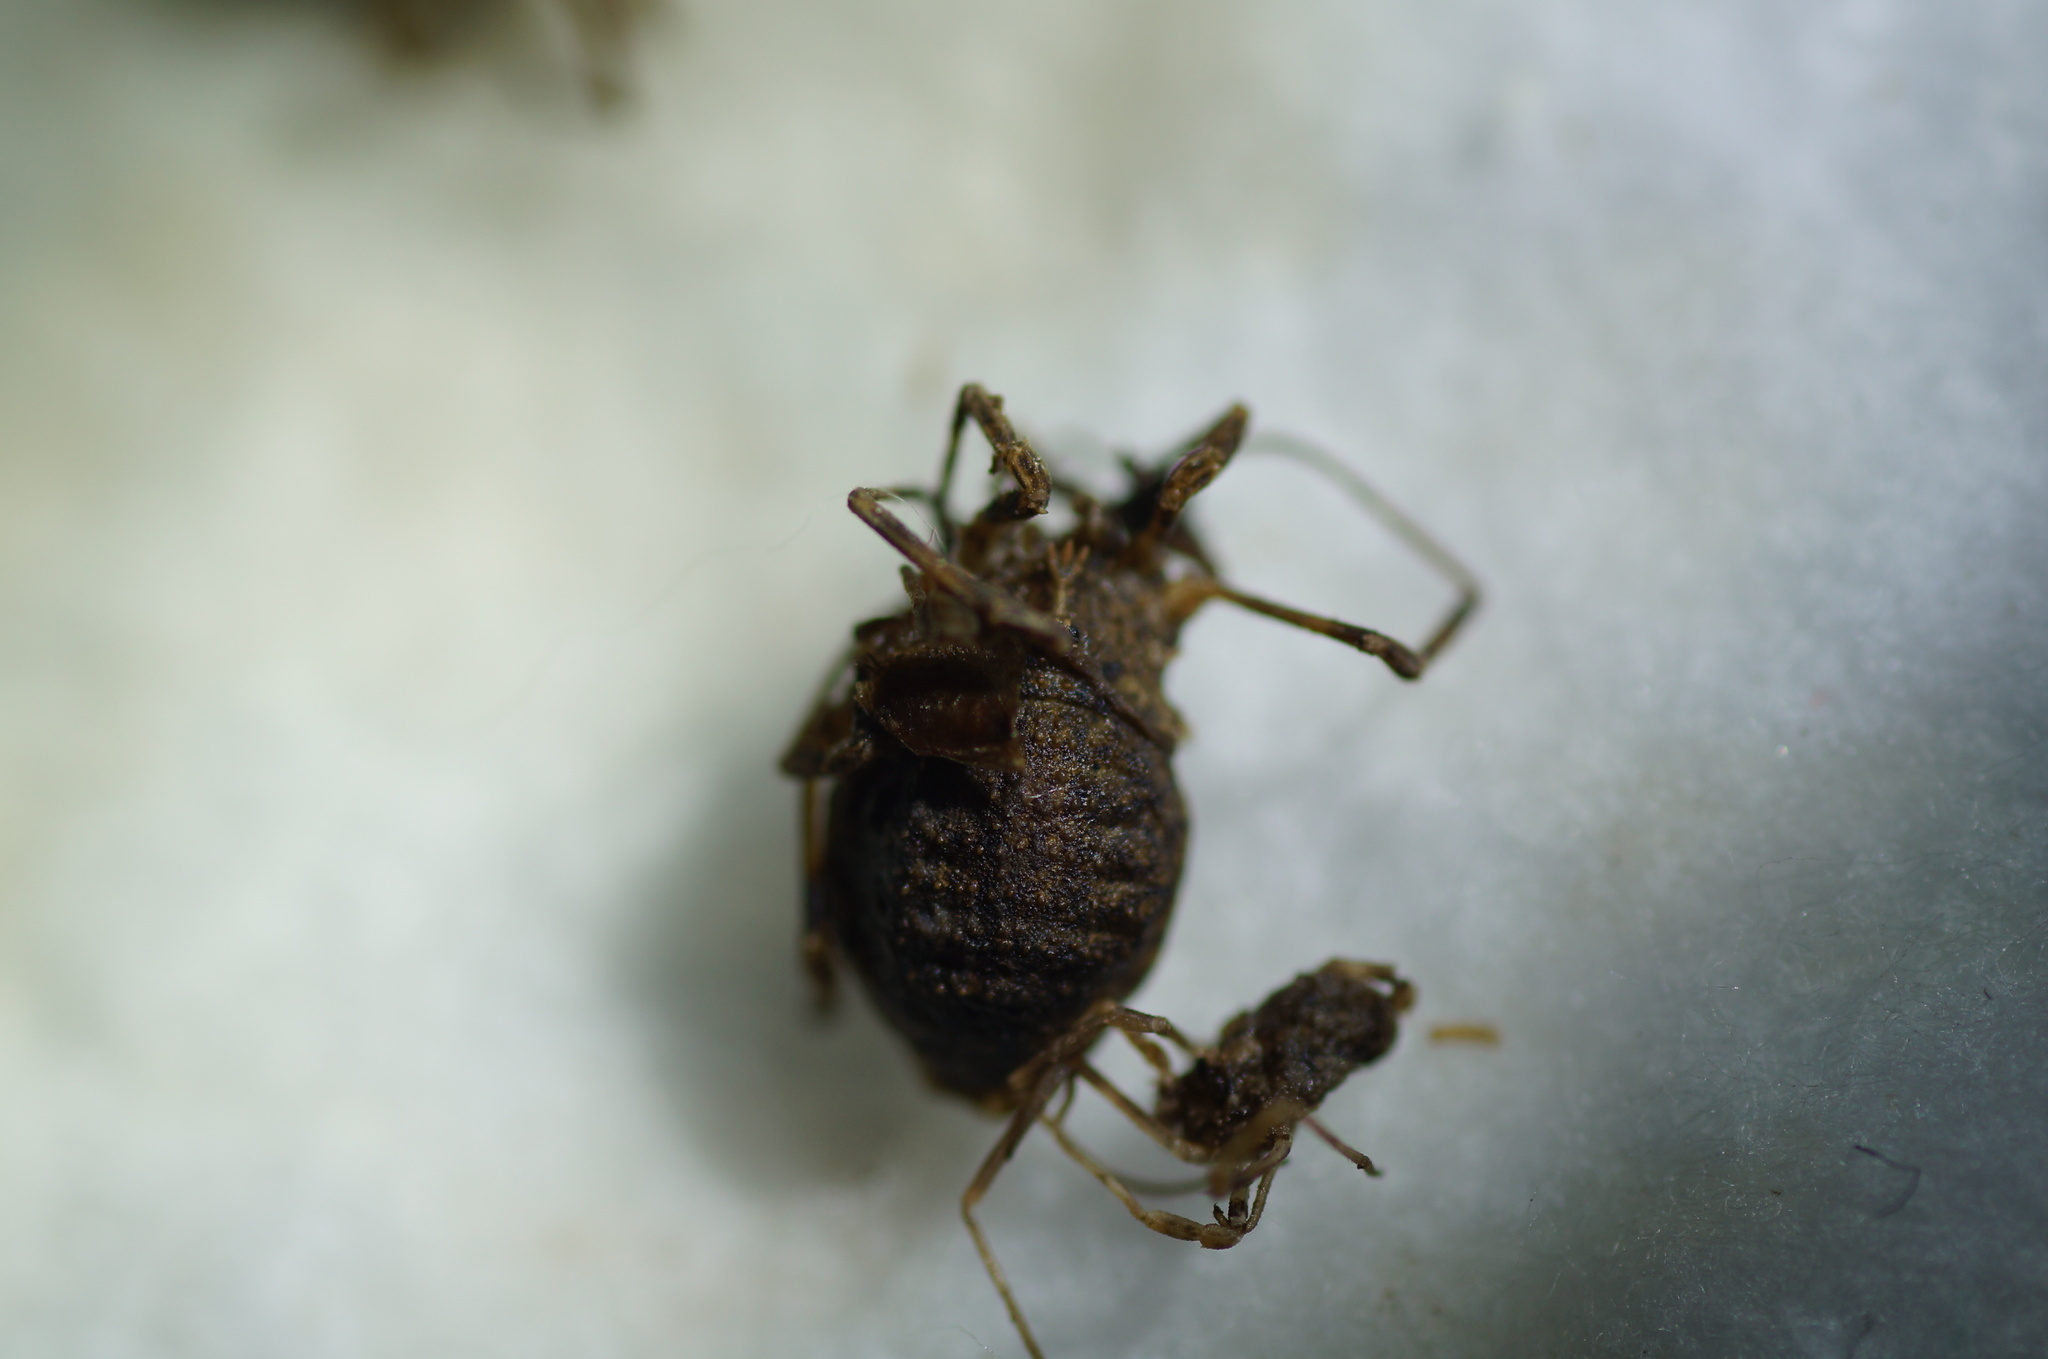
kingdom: Animalia
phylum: Arthropoda
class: Arachnida
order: Opiliones
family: Phalangiidae
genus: Odiellus
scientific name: Odiellus lendlii
